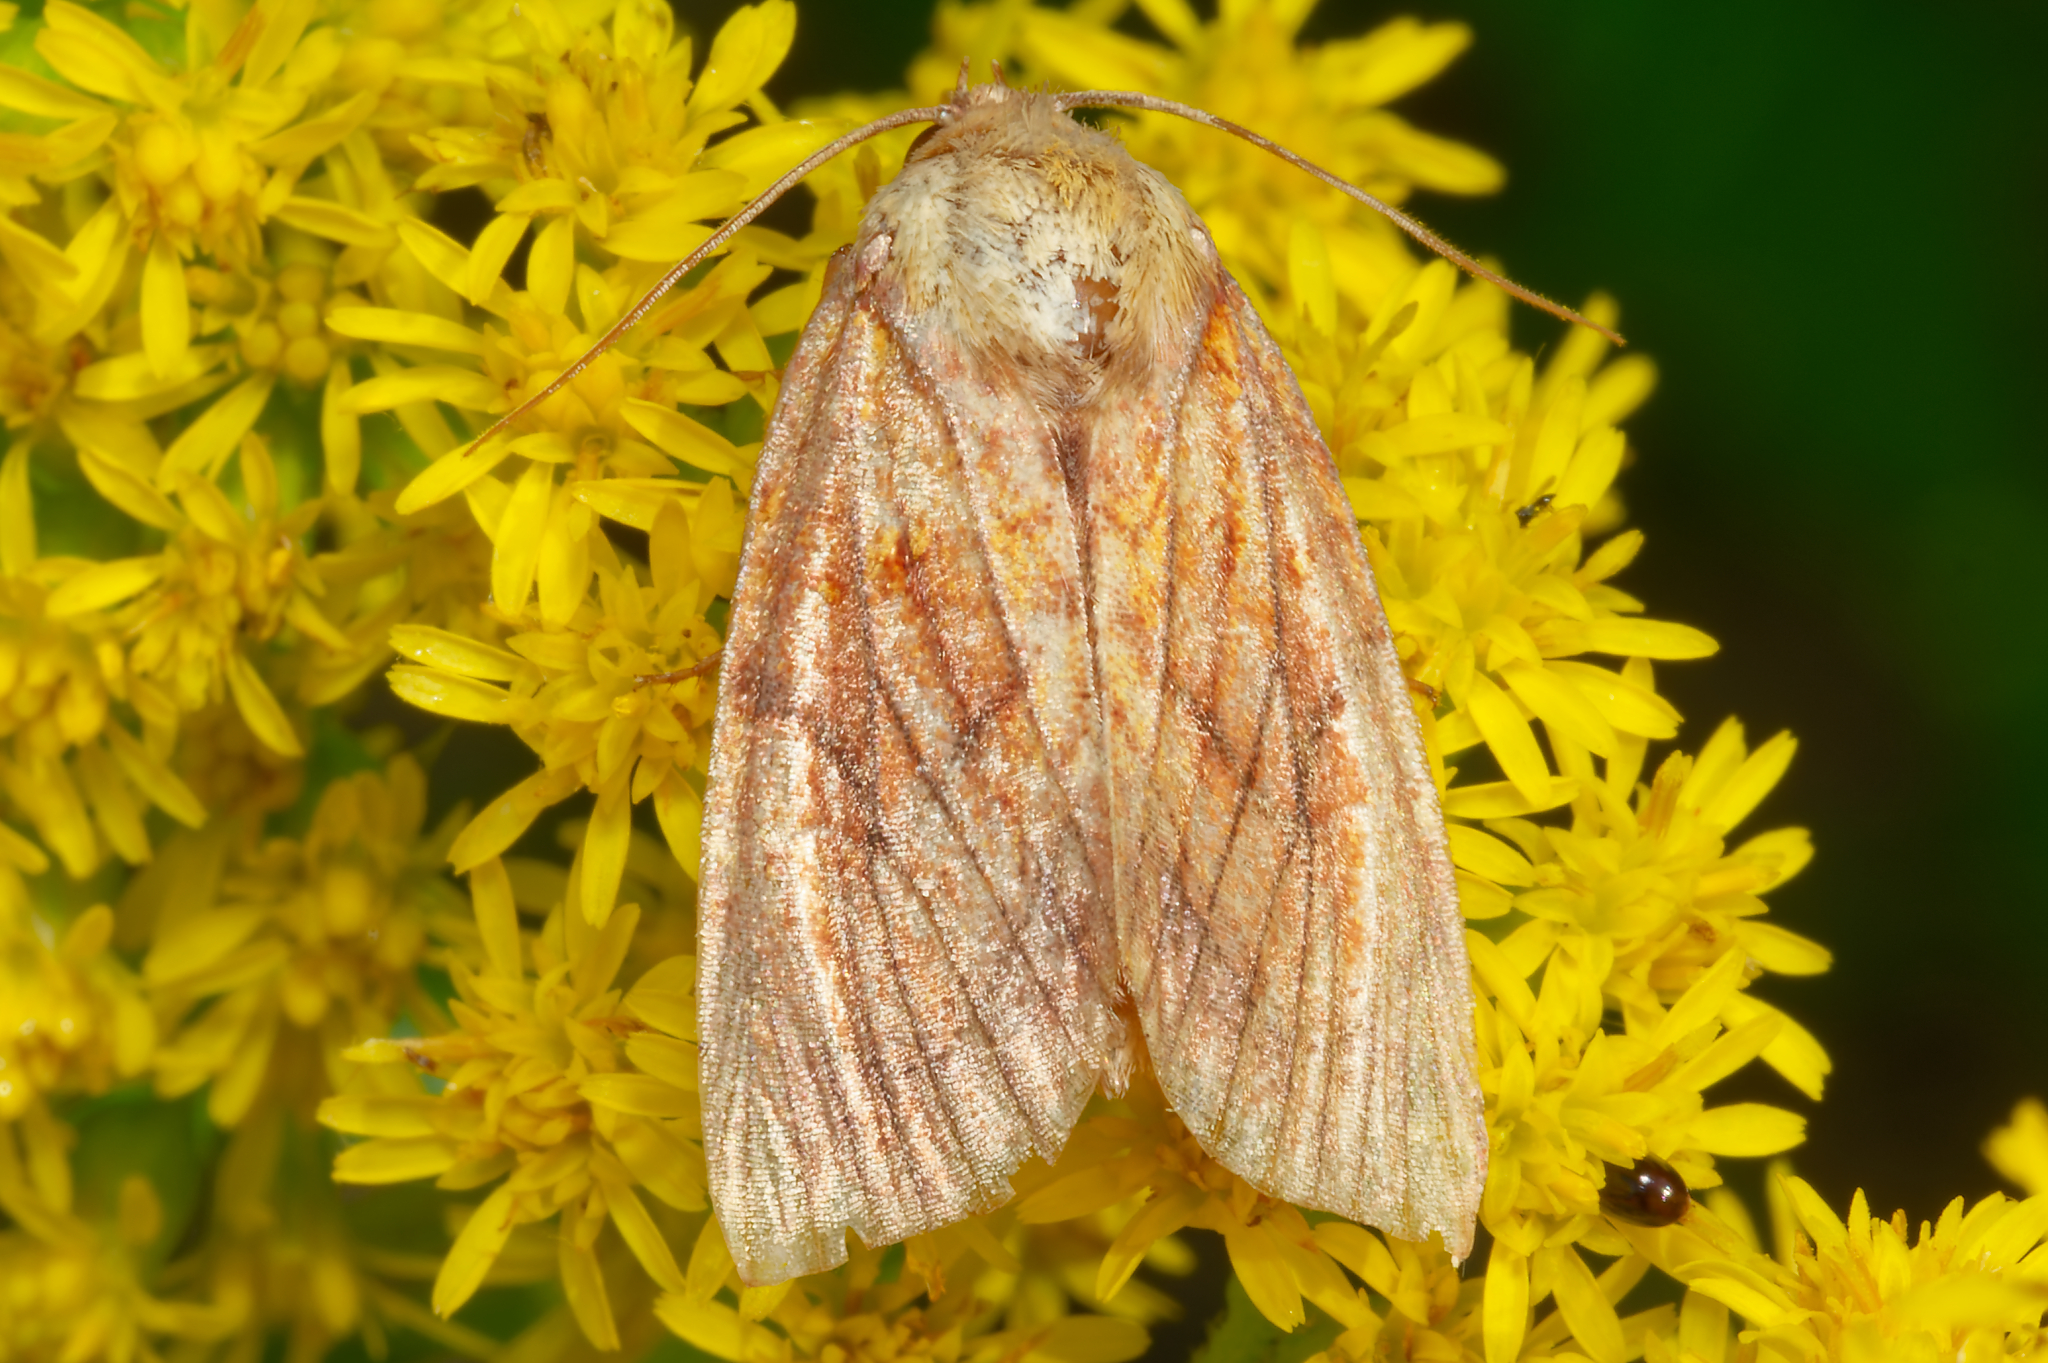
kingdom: Animalia
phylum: Arthropoda
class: Insecta
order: Lepidoptera
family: Noctuidae
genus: Papaipema
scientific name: Papaipema inquaesita
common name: Sensitive fern borer moth
